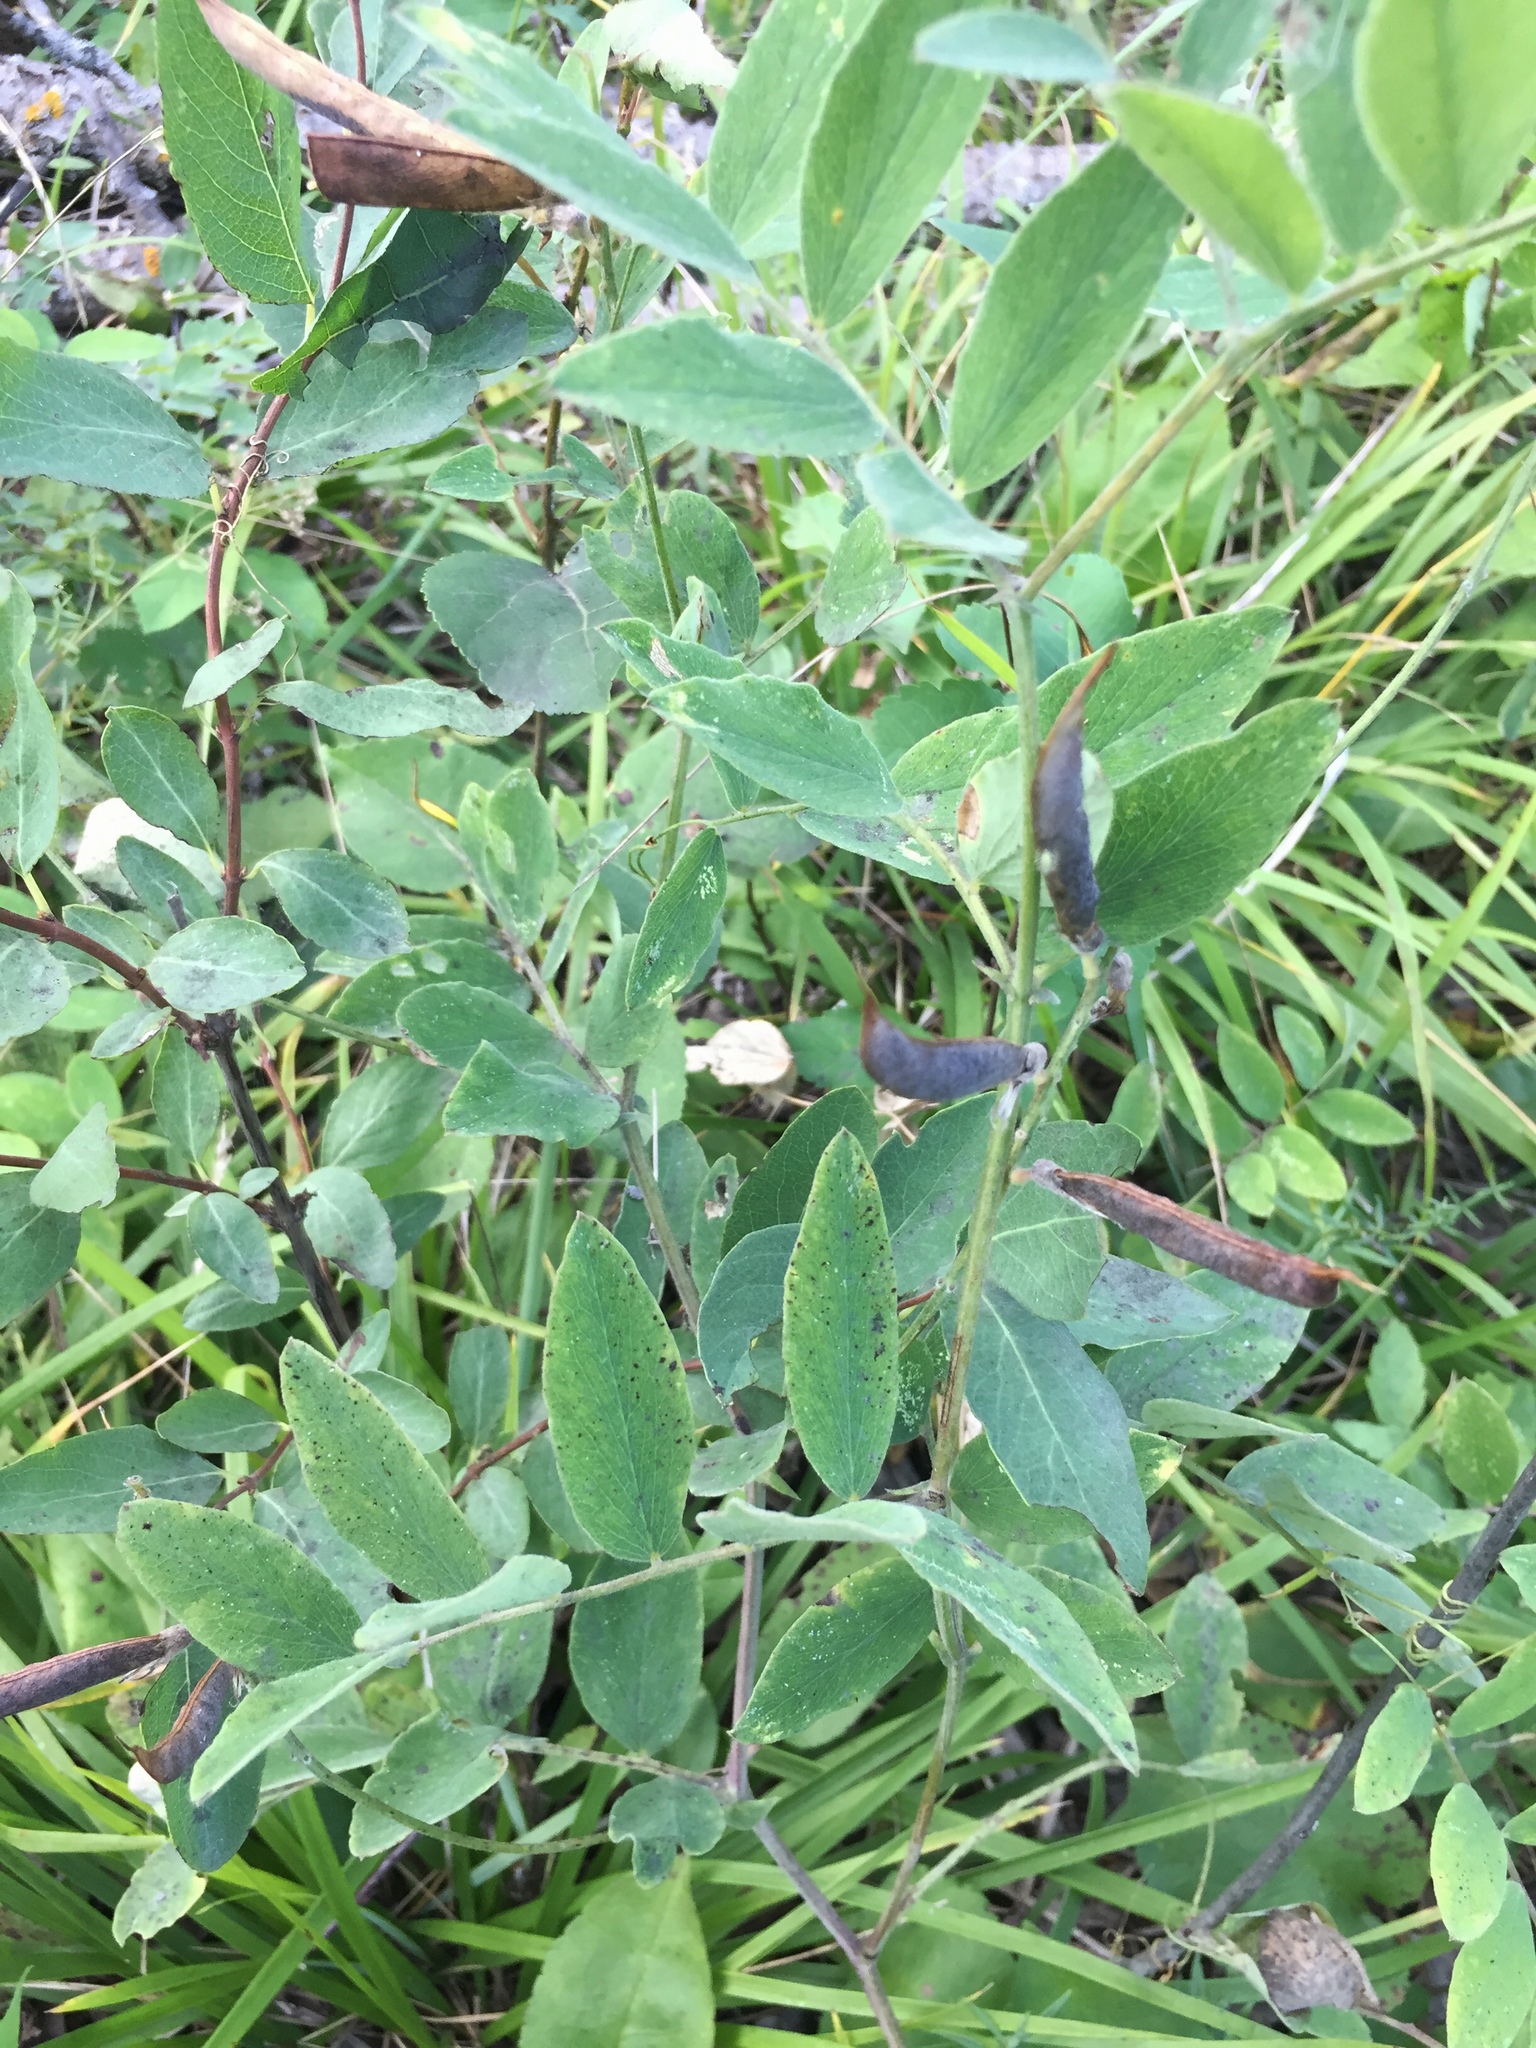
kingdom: Plantae
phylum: Tracheophyta
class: Magnoliopsida
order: Fabales
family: Fabaceae
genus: Lathyrus
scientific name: Lathyrus venosus
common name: Forest-pea
